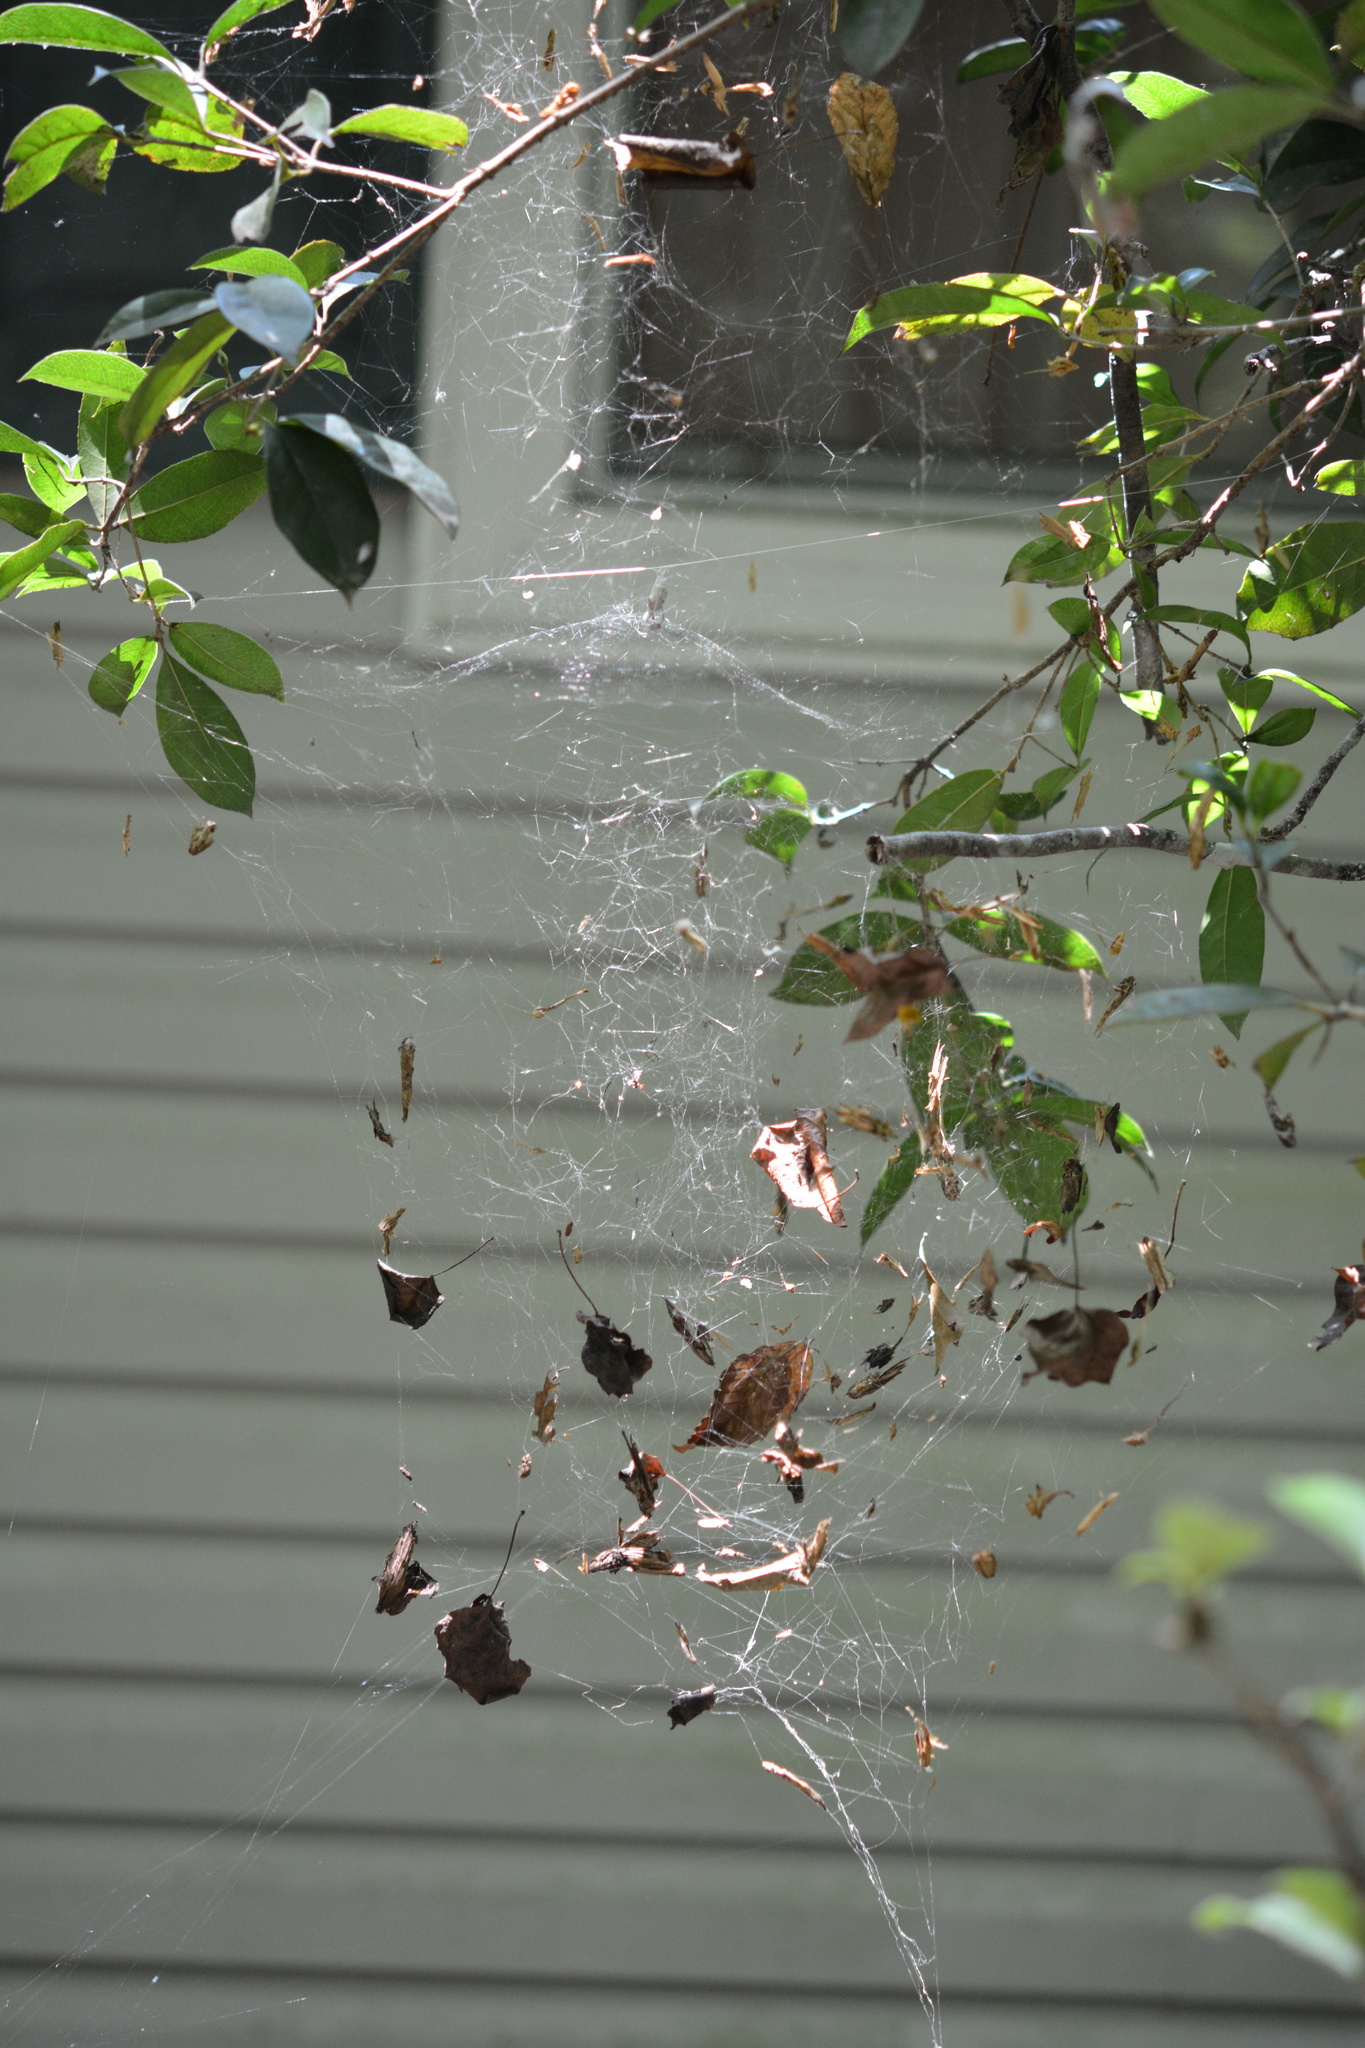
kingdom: Animalia
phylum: Arthropoda
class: Arachnida
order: Araneae
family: Araneidae
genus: Mecynogea
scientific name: Mecynogea lemniscata
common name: Orb weavers
